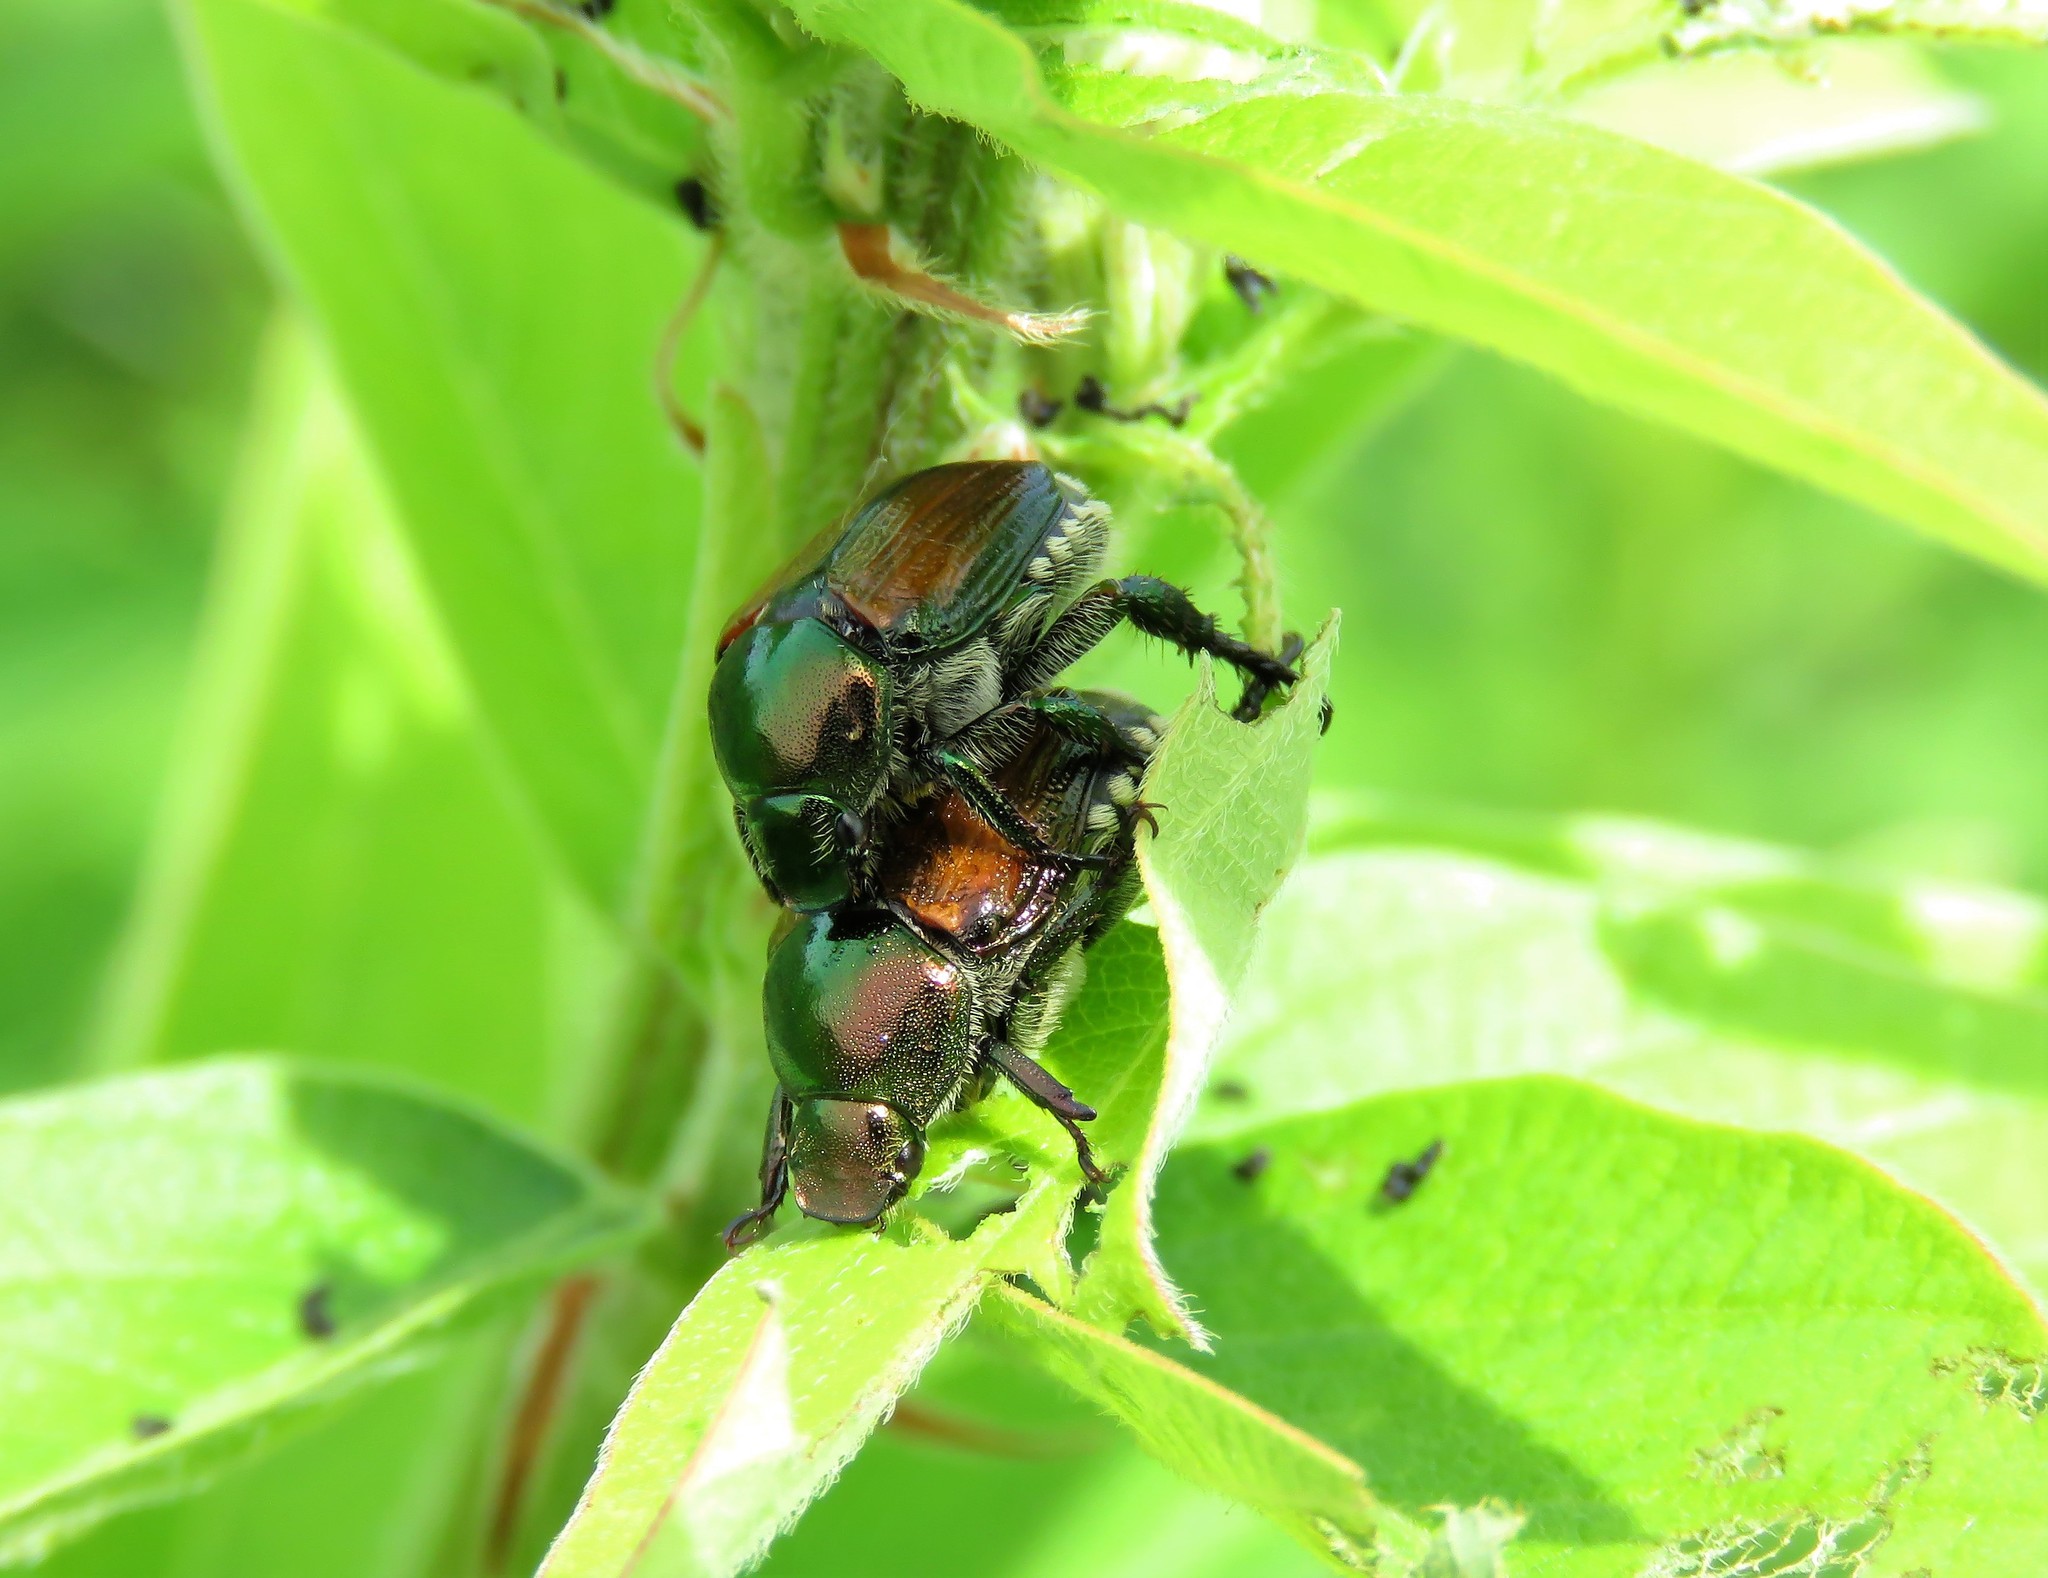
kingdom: Animalia
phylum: Arthropoda
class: Insecta
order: Coleoptera
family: Scarabaeidae
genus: Popillia
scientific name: Popillia japonica
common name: Japanese beetle
